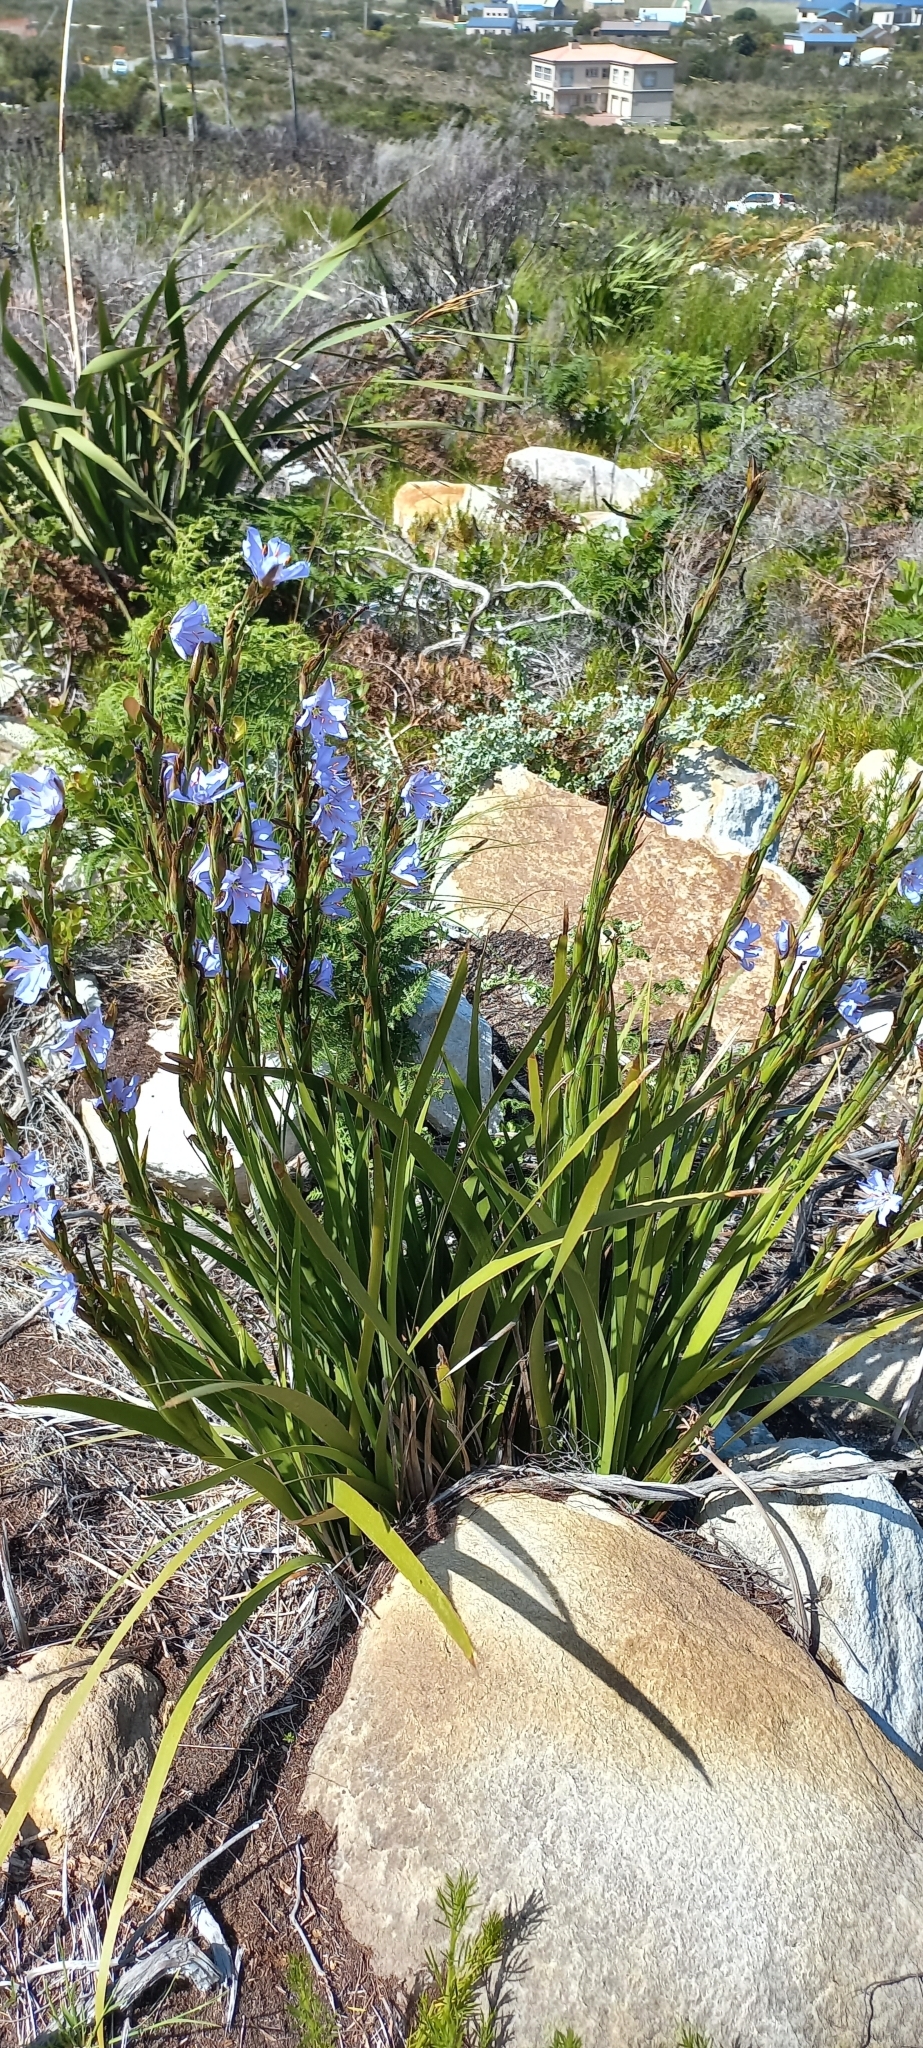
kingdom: Plantae
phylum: Tracheophyta
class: Liliopsida
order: Asparagales
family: Iridaceae
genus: Aristea
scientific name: Aristea spiralis
